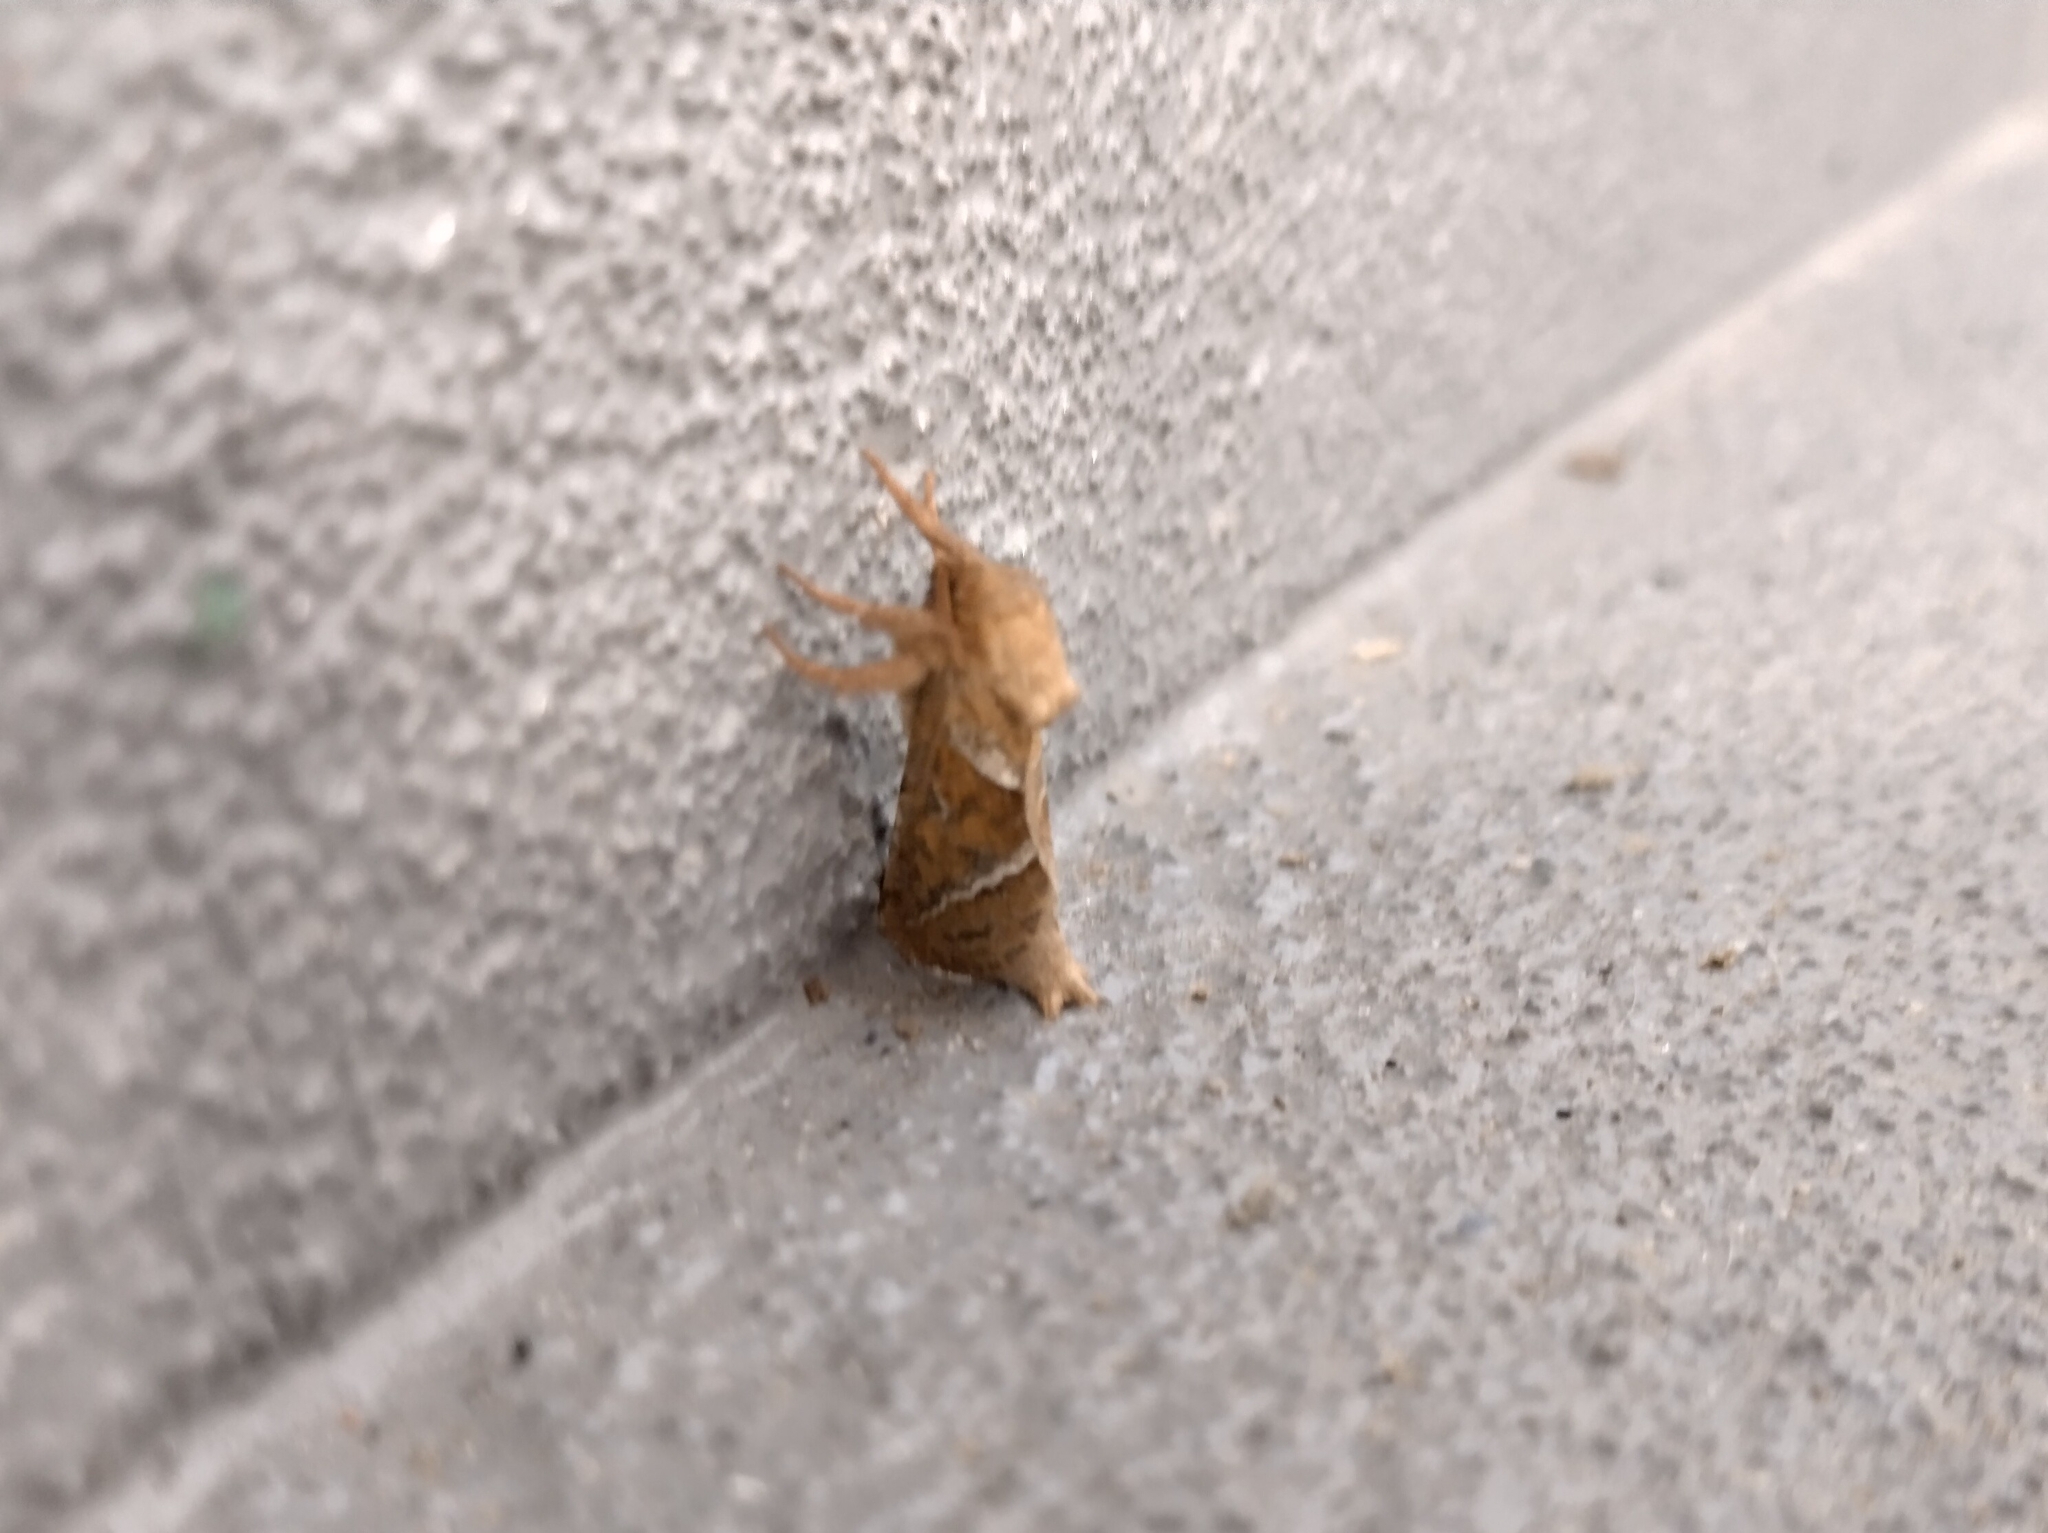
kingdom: Animalia
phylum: Arthropoda
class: Insecta
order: Lepidoptera
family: Hepialidae
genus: Triodia
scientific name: Triodia sylvina
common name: Orange swift
